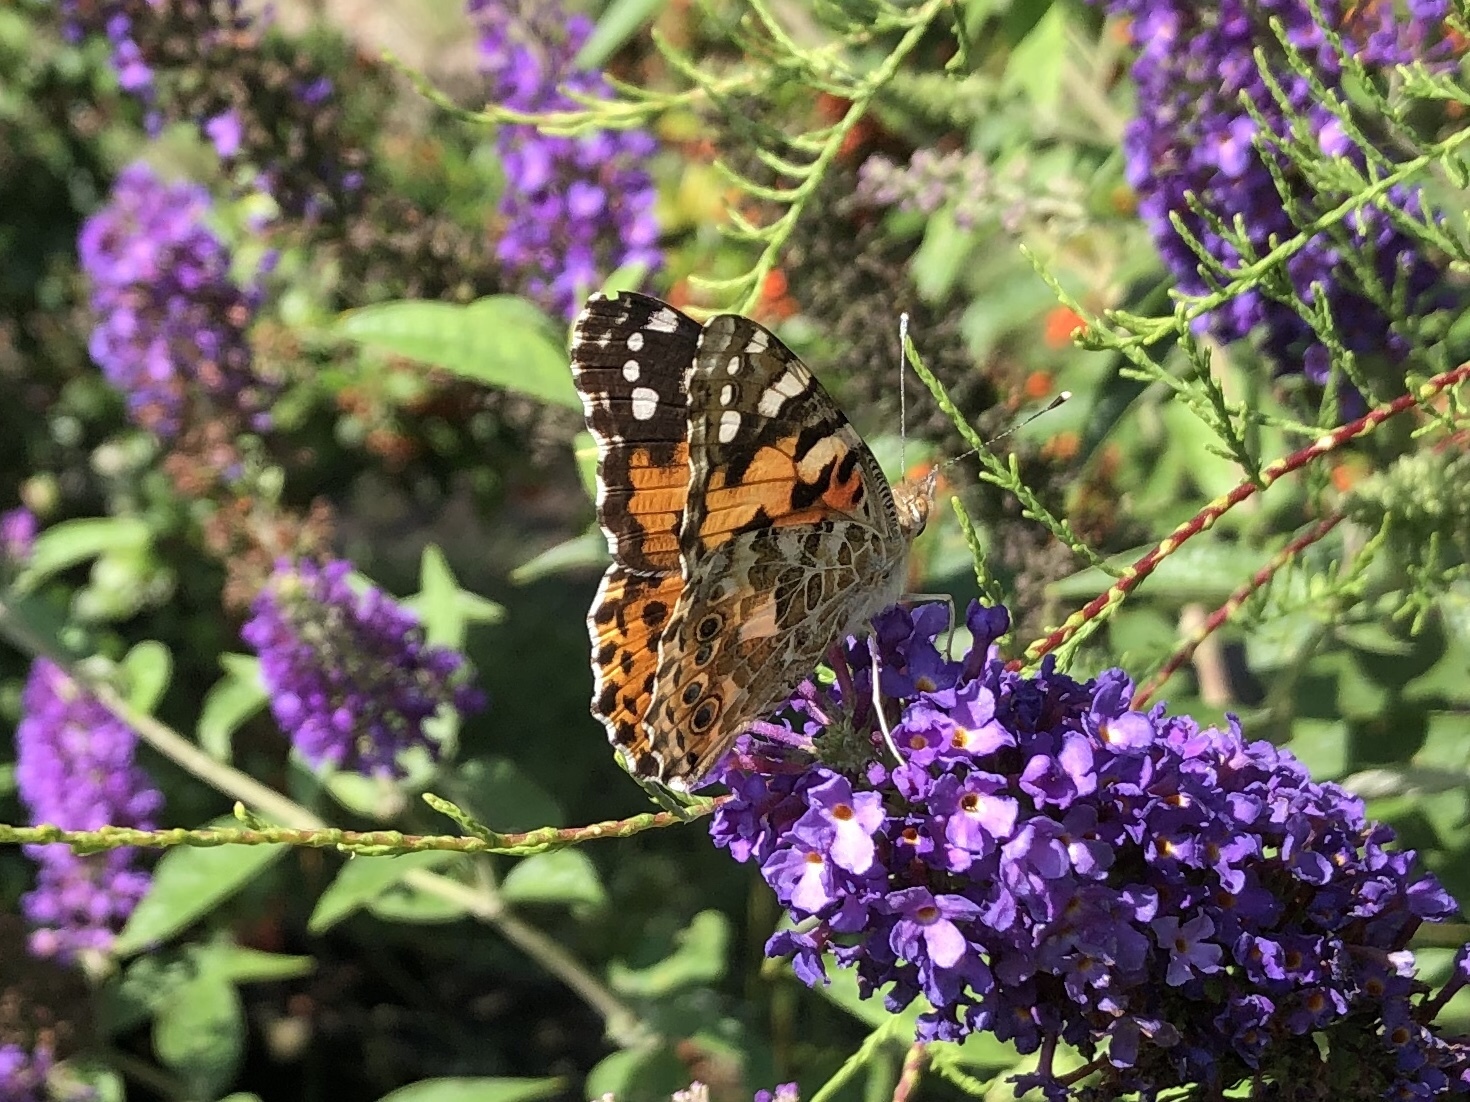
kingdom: Animalia
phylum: Arthropoda
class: Insecta
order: Lepidoptera
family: Nymphalidae
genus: Vanessa
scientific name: Vanessa cardui
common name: Painted lady
